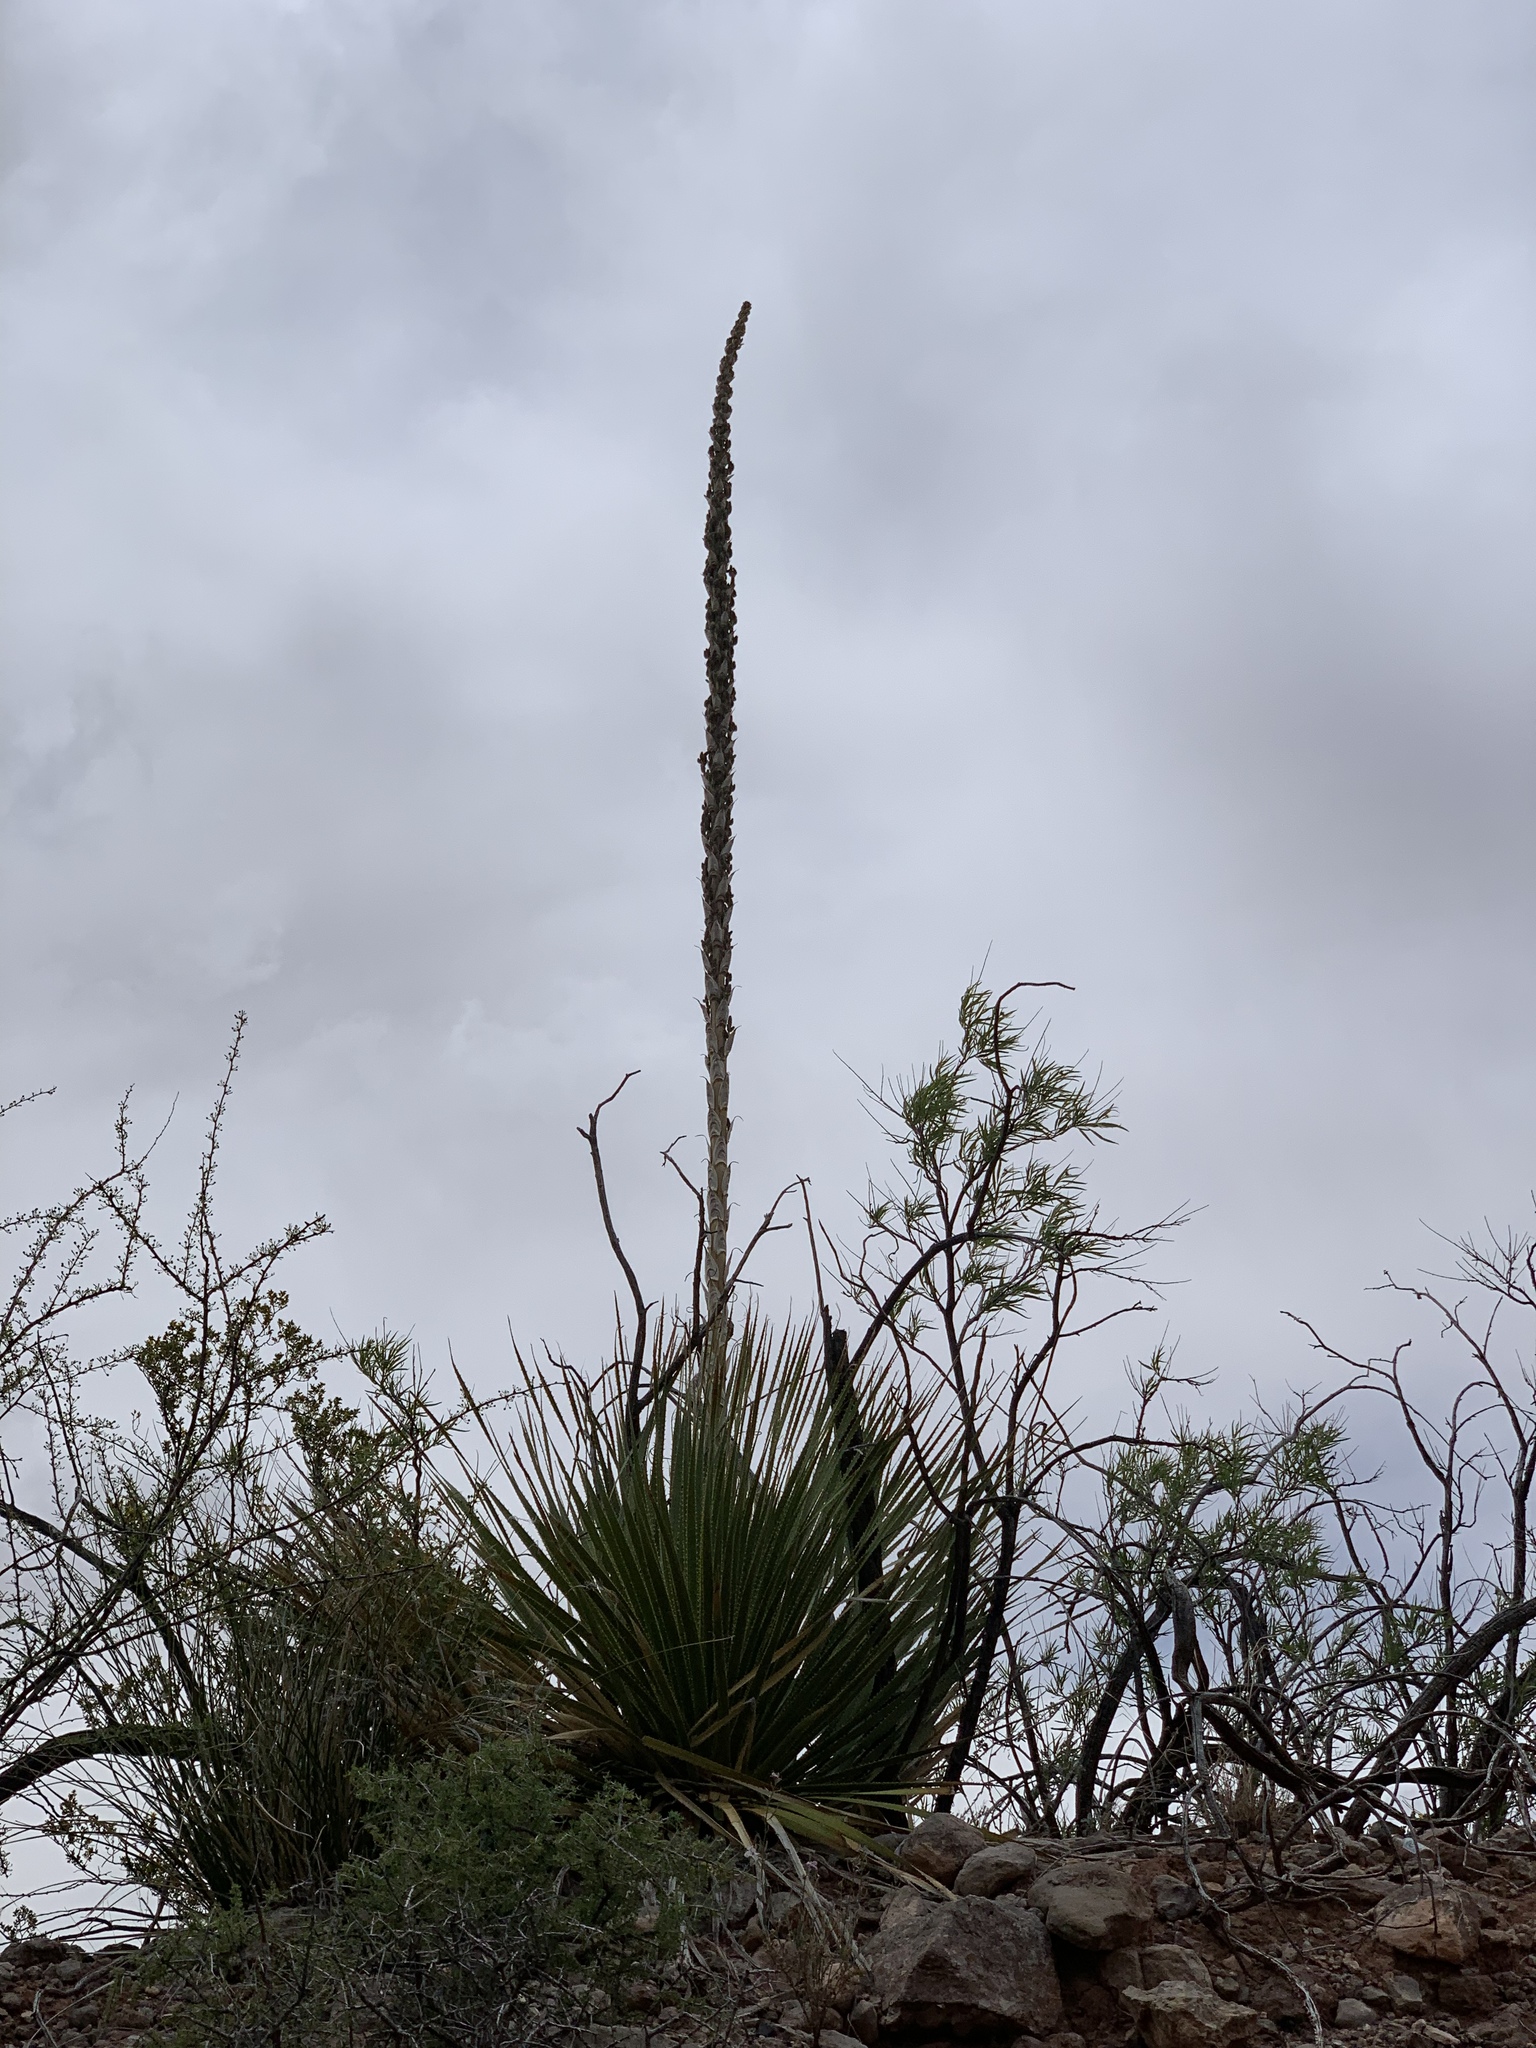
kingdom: Plantae
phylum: Tracheophyta
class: Liliopsida
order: Asparagales
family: Asparagaceae
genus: Dasylirion
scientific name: Dasylirion wheeleri
